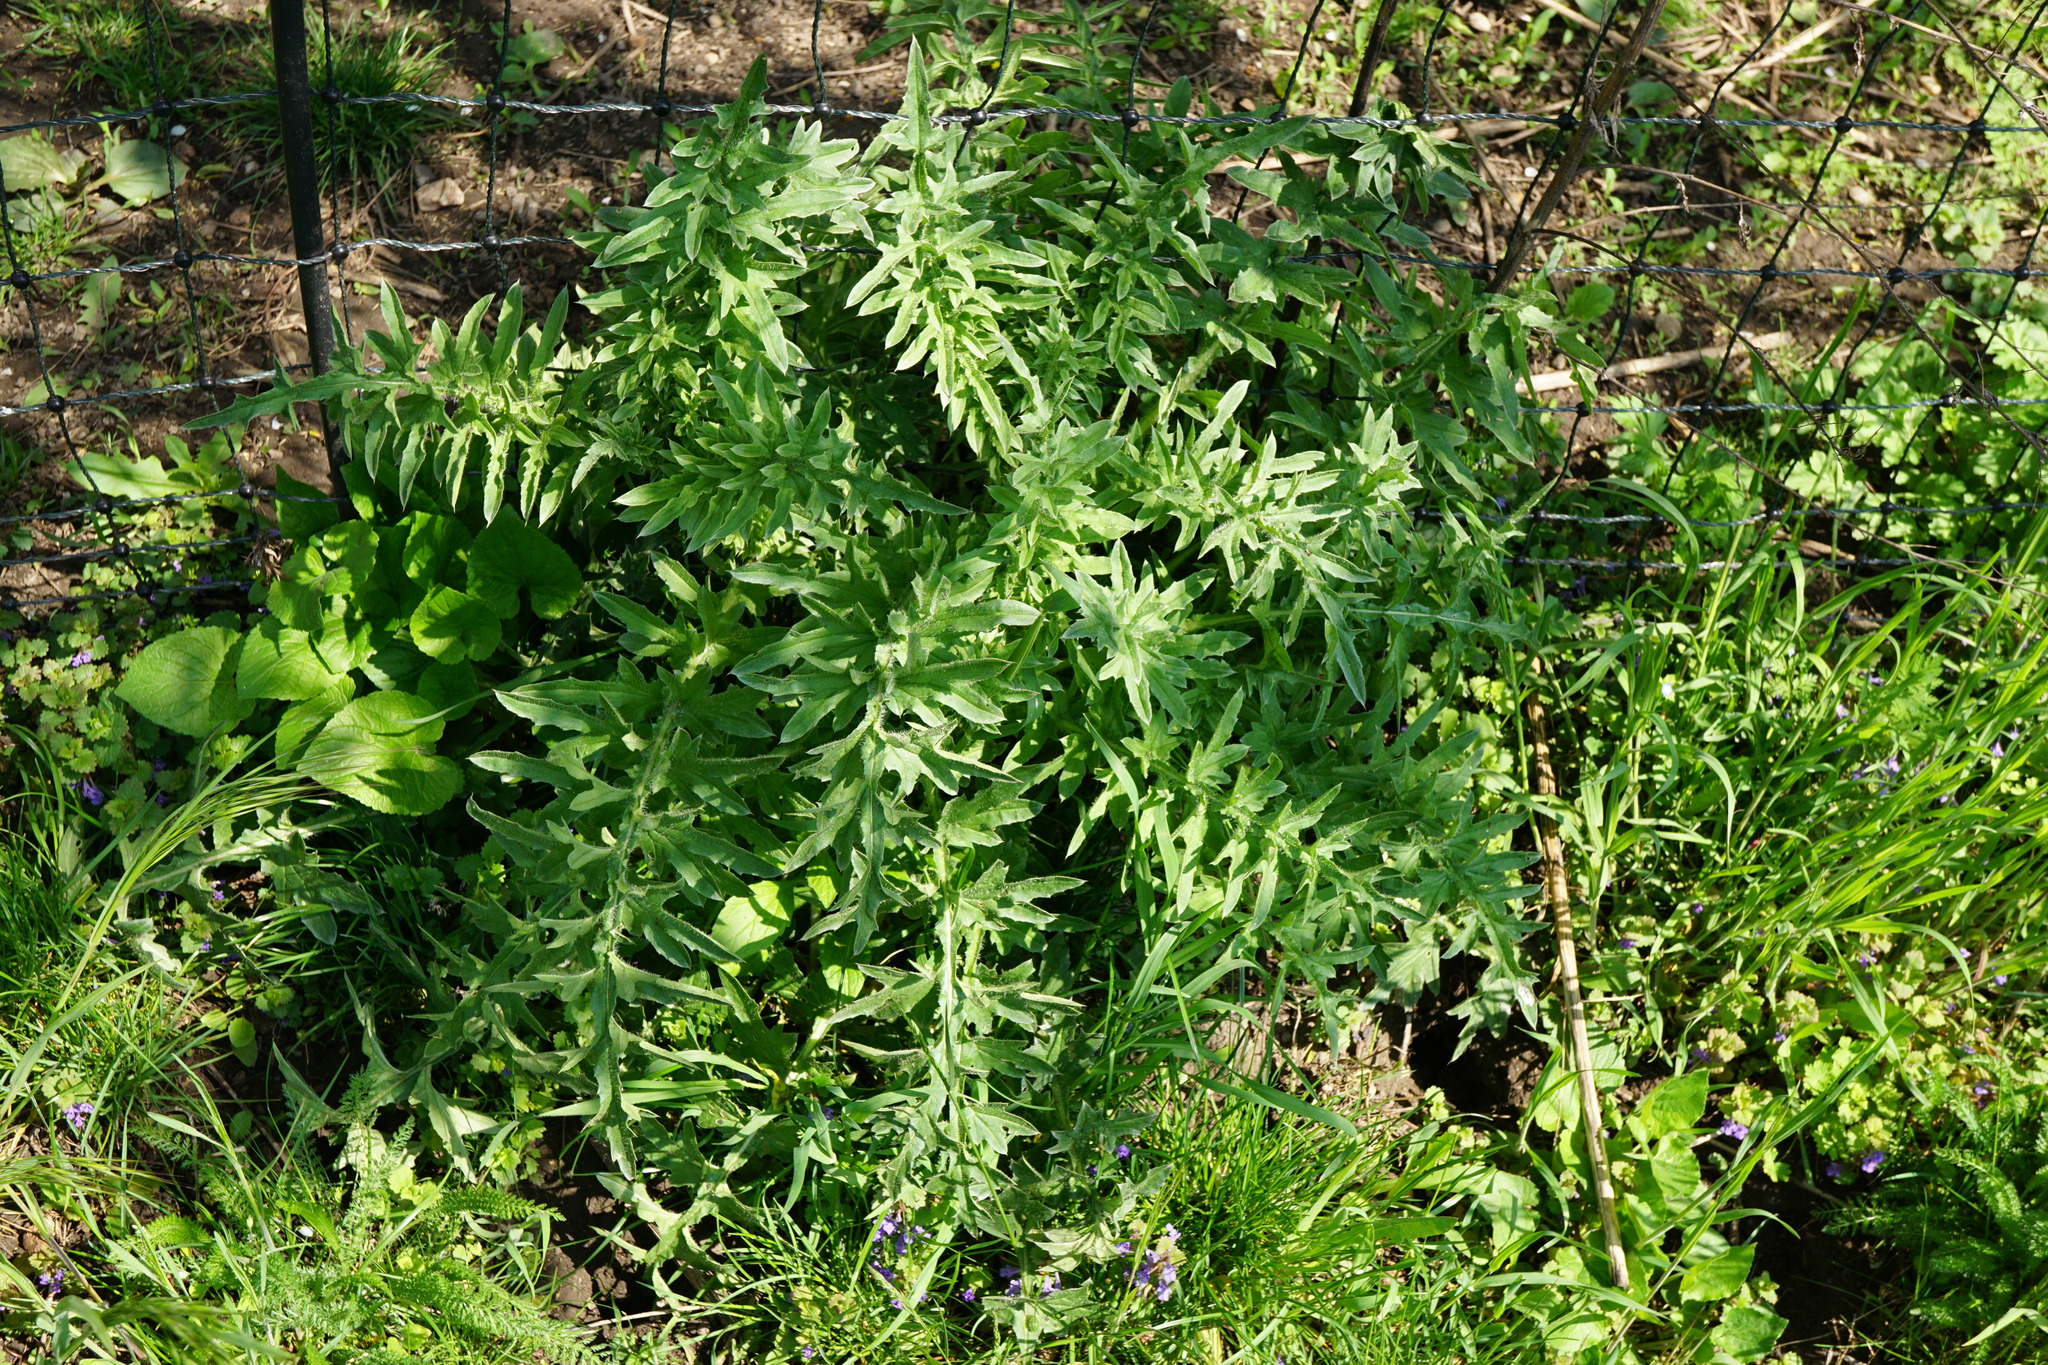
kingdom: Plantae
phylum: Tracheophyta
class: Magnoliopsida
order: Asterales
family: Asteraceae
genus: Carduus
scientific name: Carduus acanthoides
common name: Plumeless thistle
